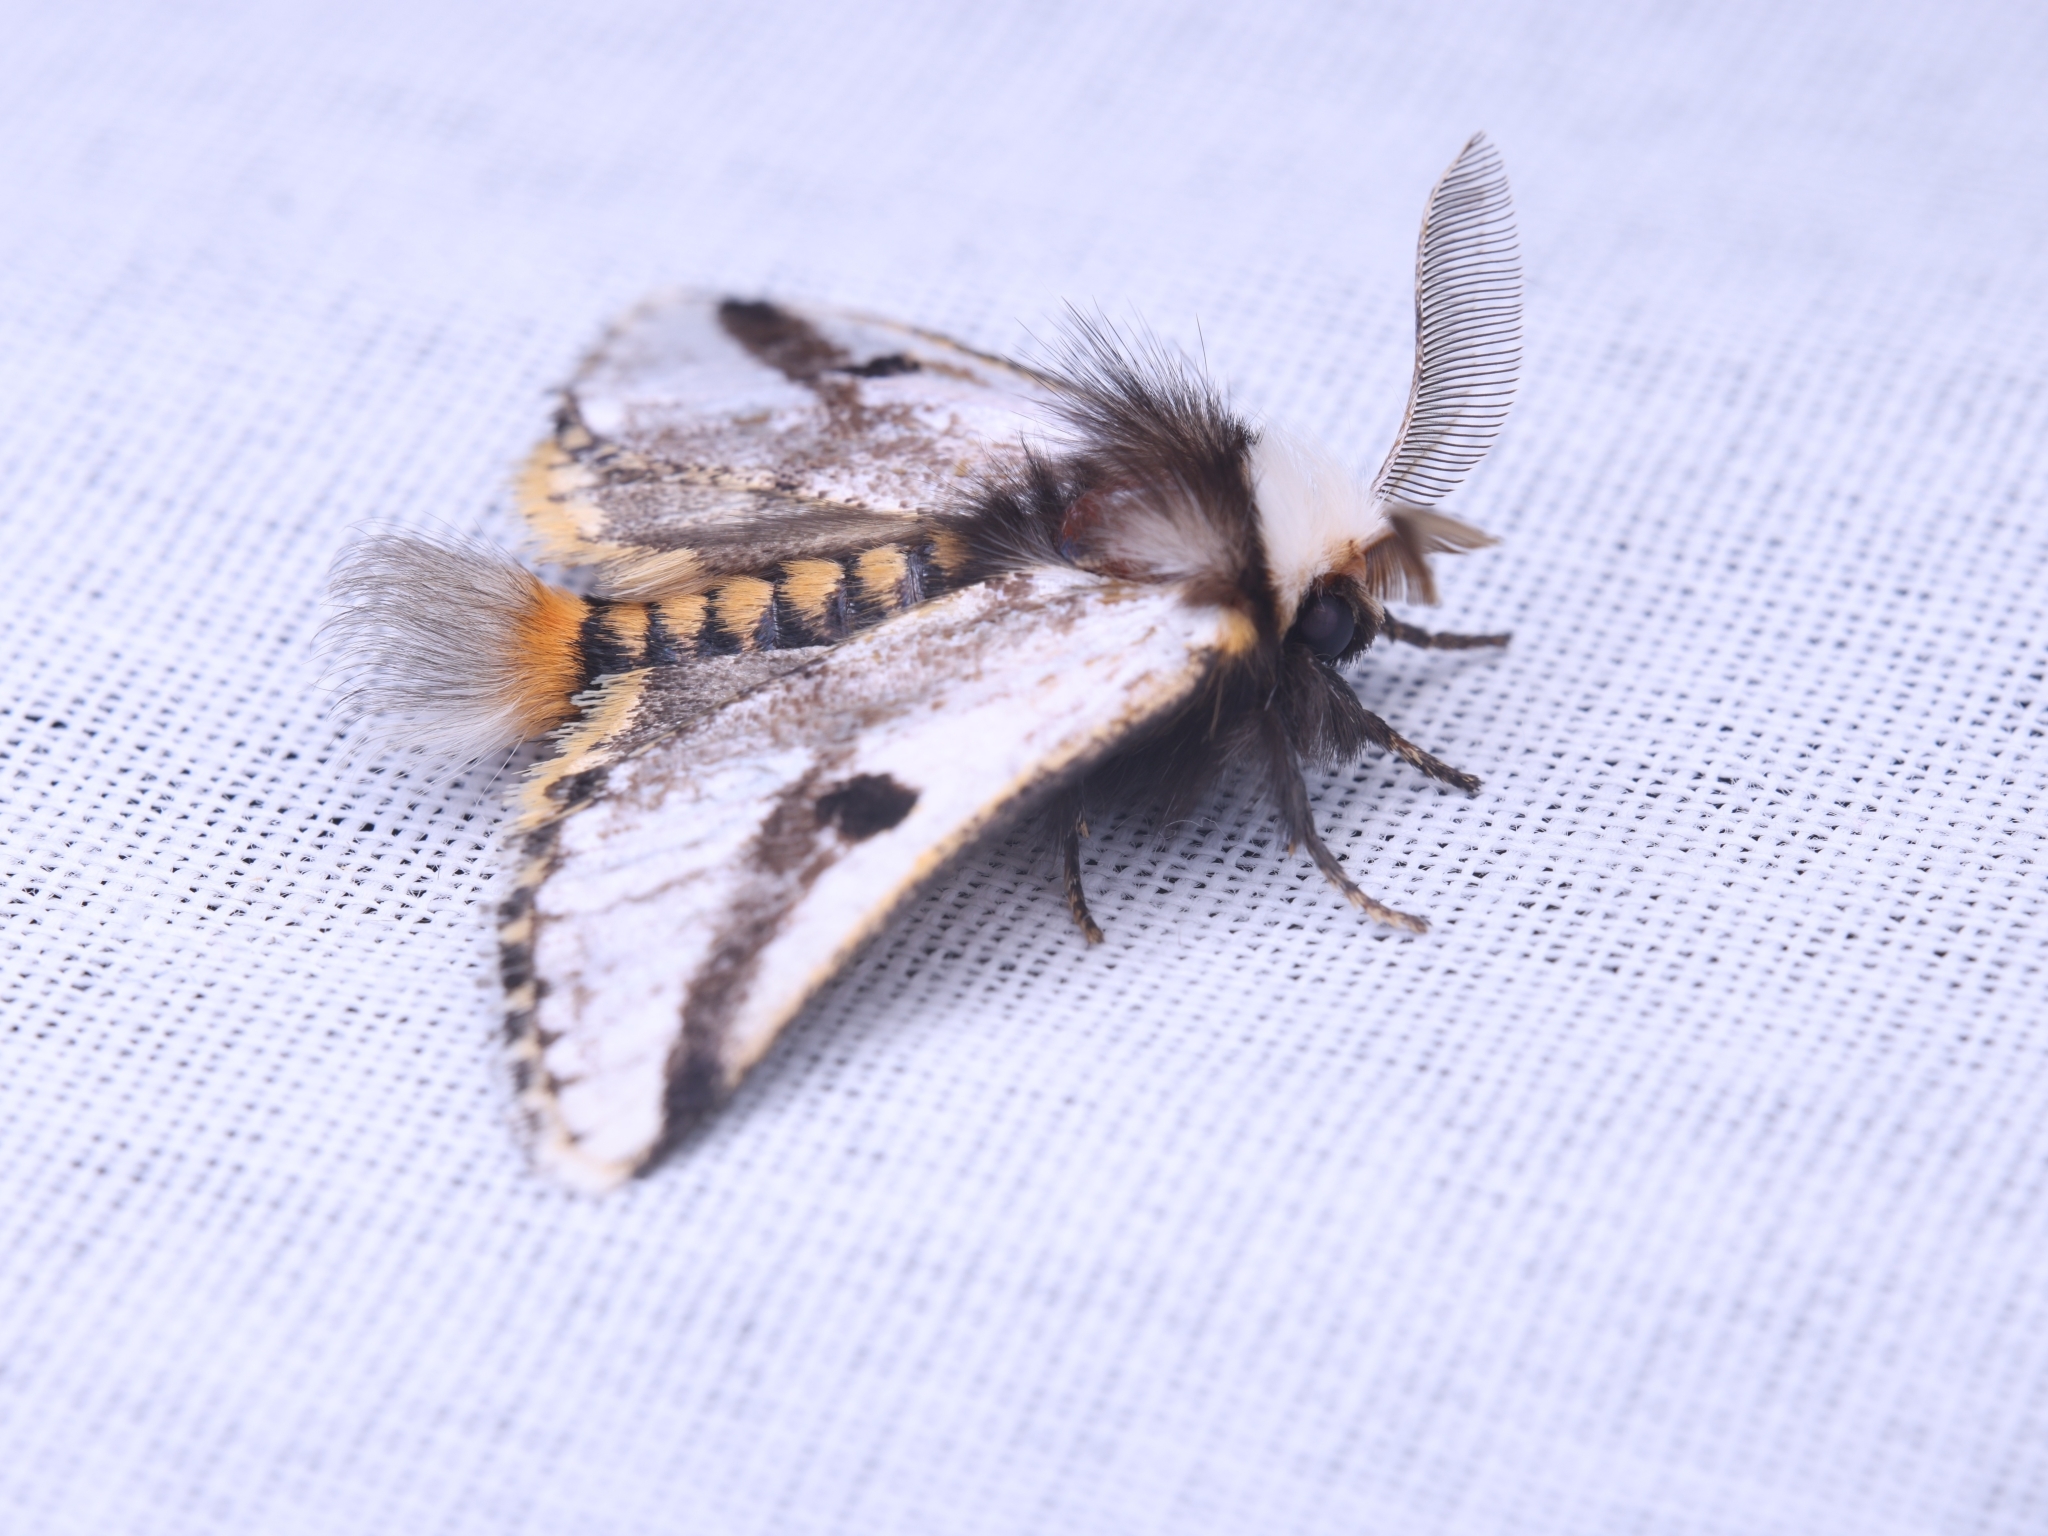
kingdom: Animalia
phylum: Arthropoda
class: Insecta
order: Lepidoptera
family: Notodontidae
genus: Epicoma
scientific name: Epicoma melanospila
